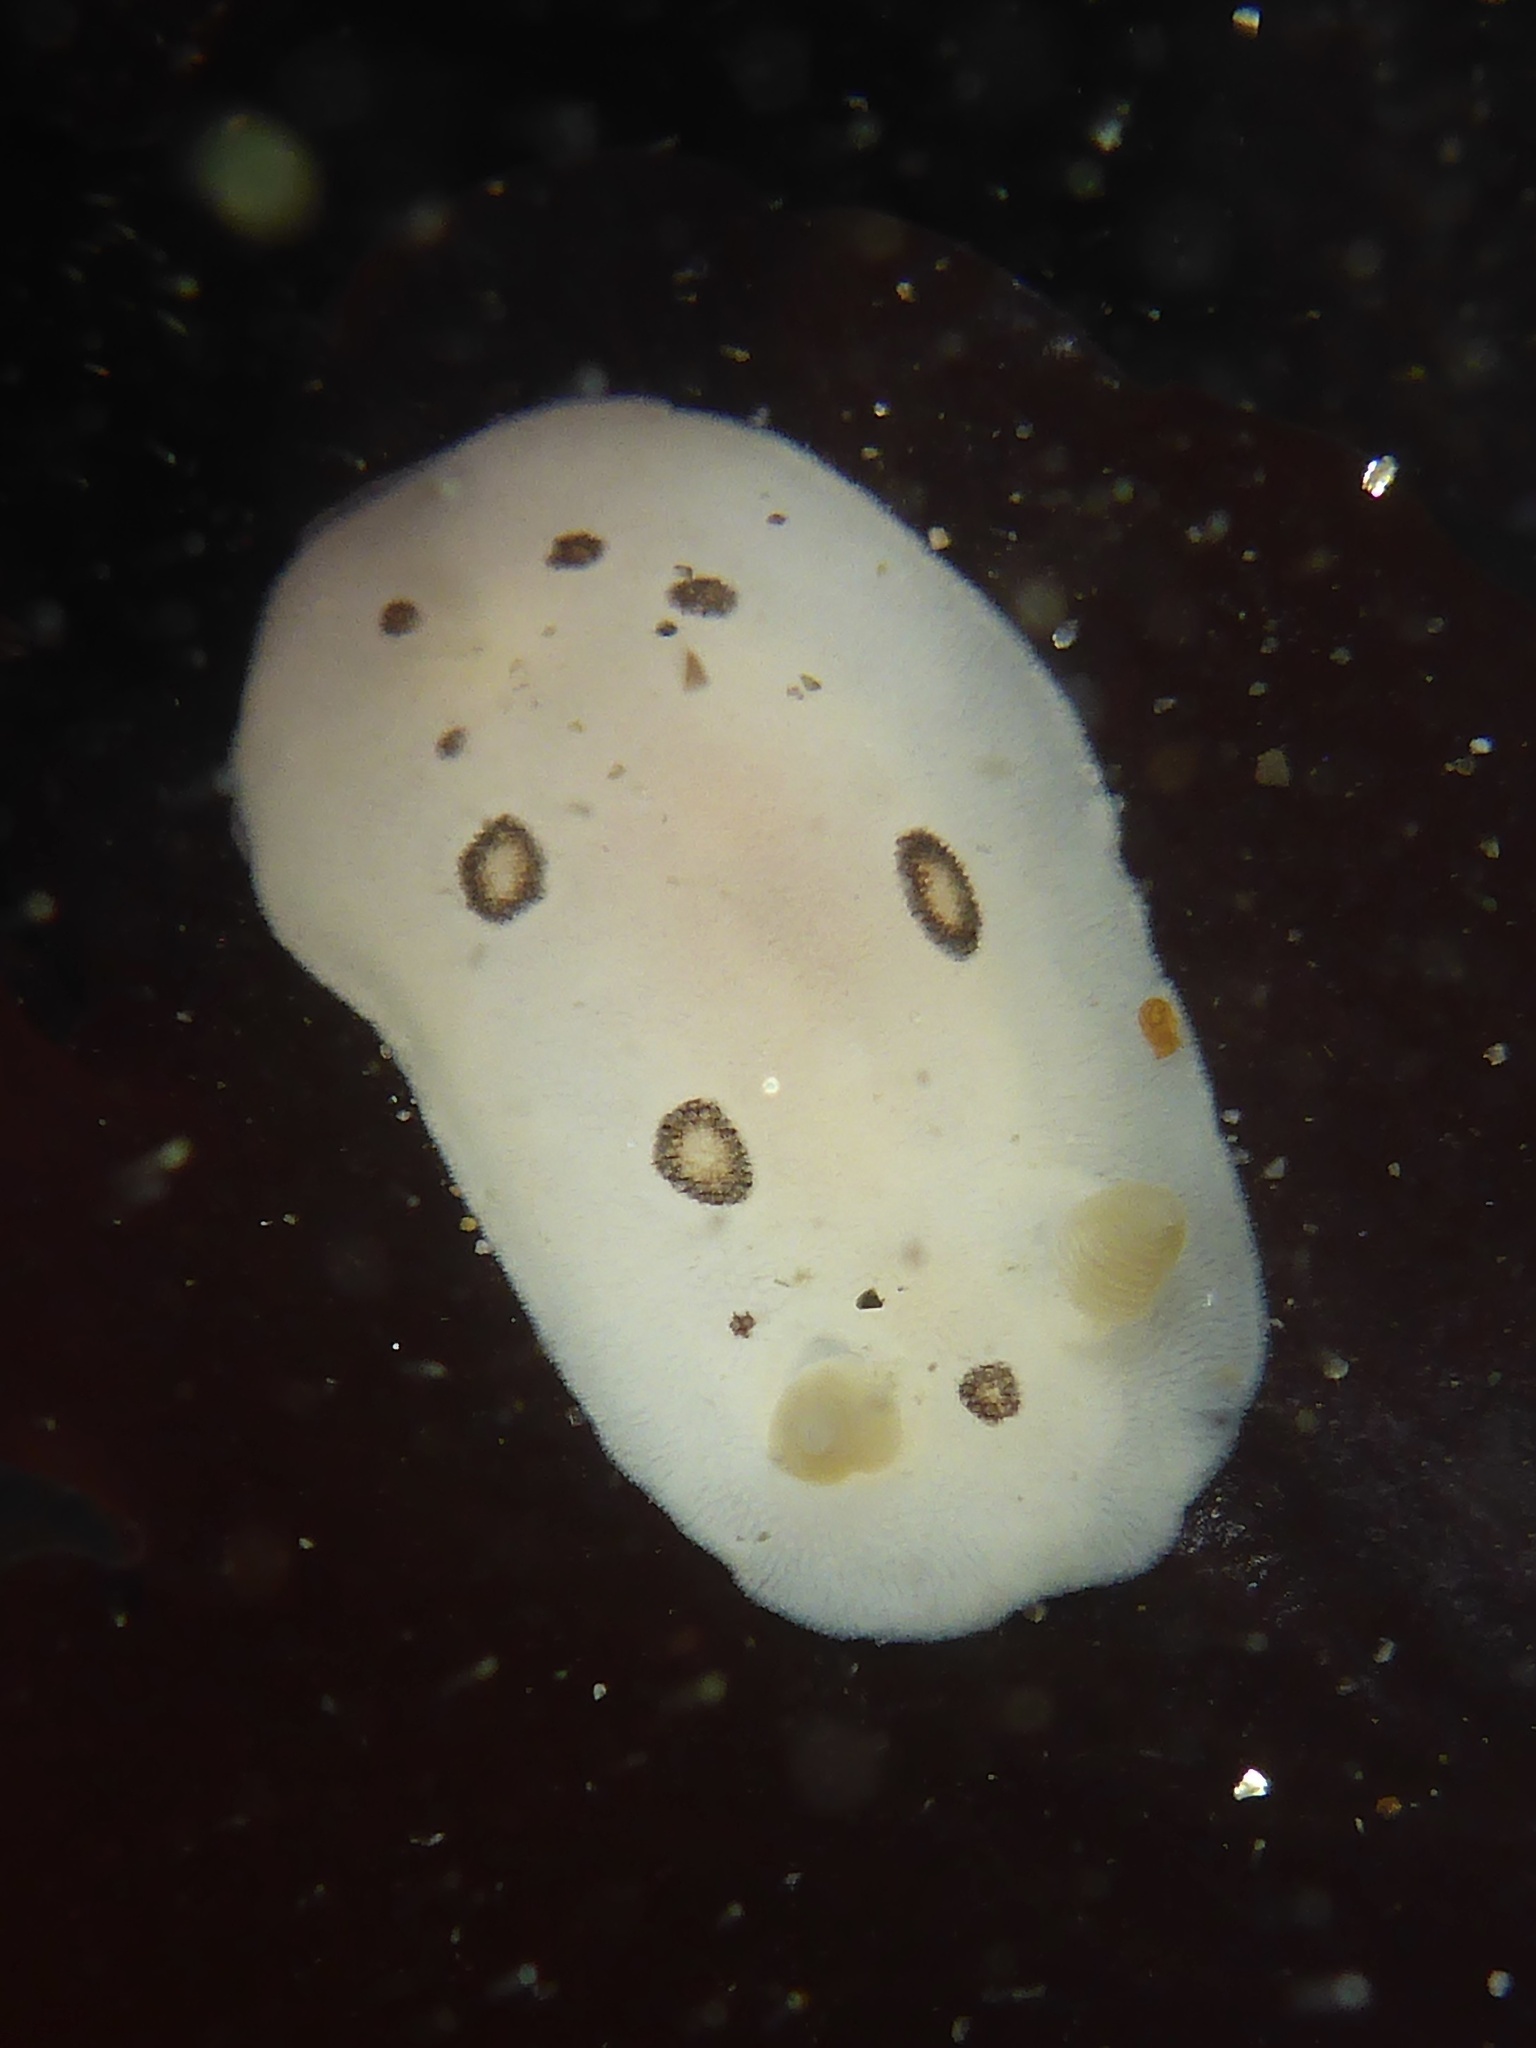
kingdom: Animalia
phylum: Mollusca
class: Gastropoda
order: Nudibranchia
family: Discodorididae
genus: Diaulula
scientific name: Diaulula sandiegensis
